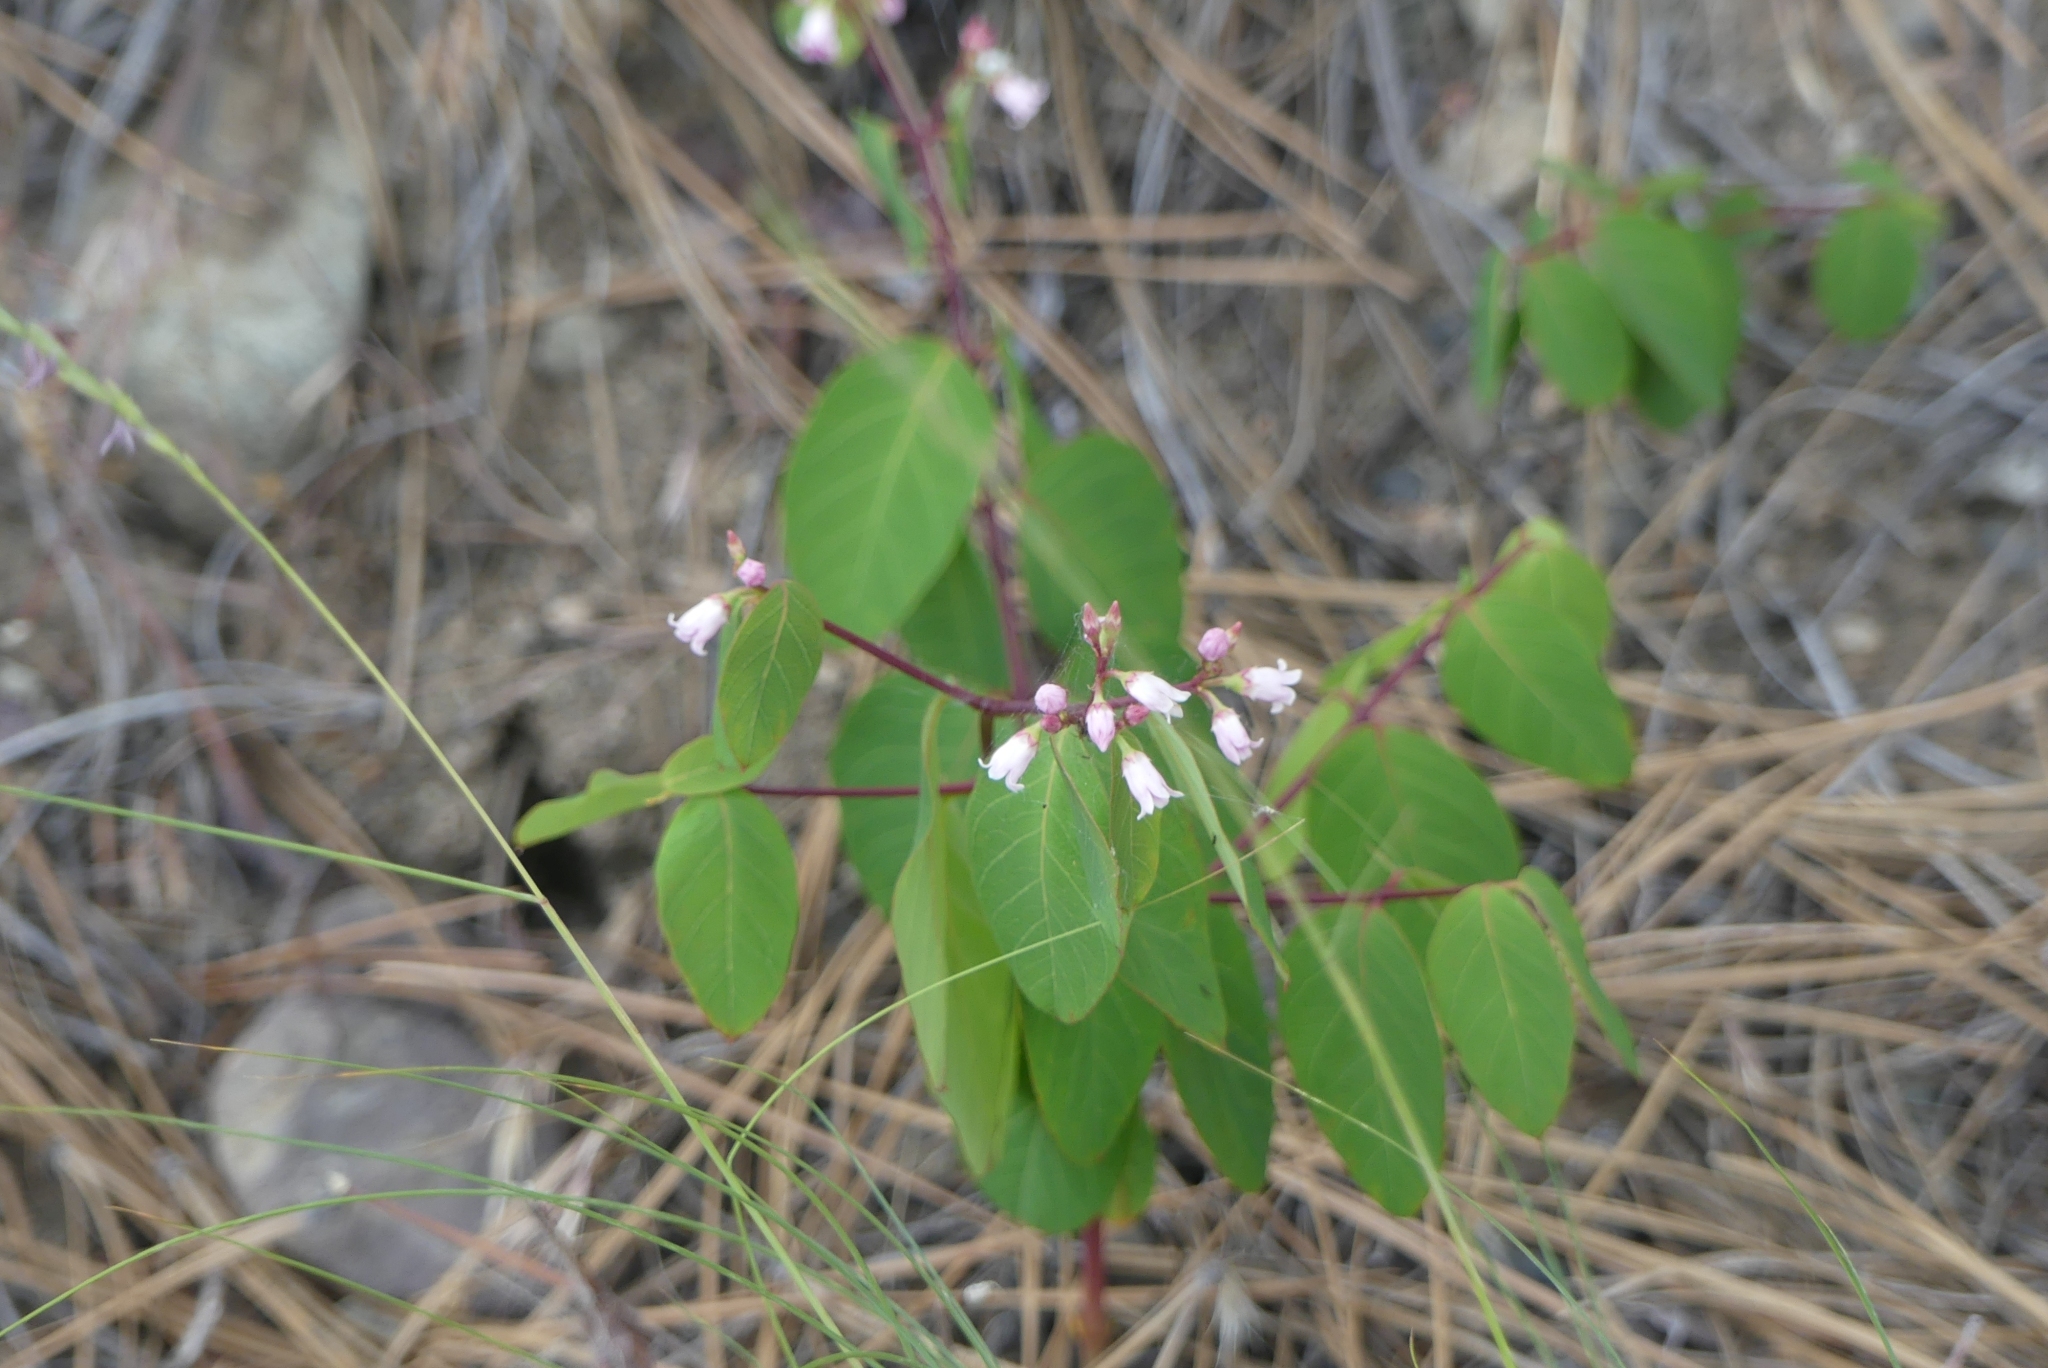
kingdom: Plantae
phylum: Tracheophyta
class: Magnoliopsida
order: Gentianales
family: Apocynaceae
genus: Apocynum
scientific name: Apocynum androsaemifolium
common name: Spreading dogbane
